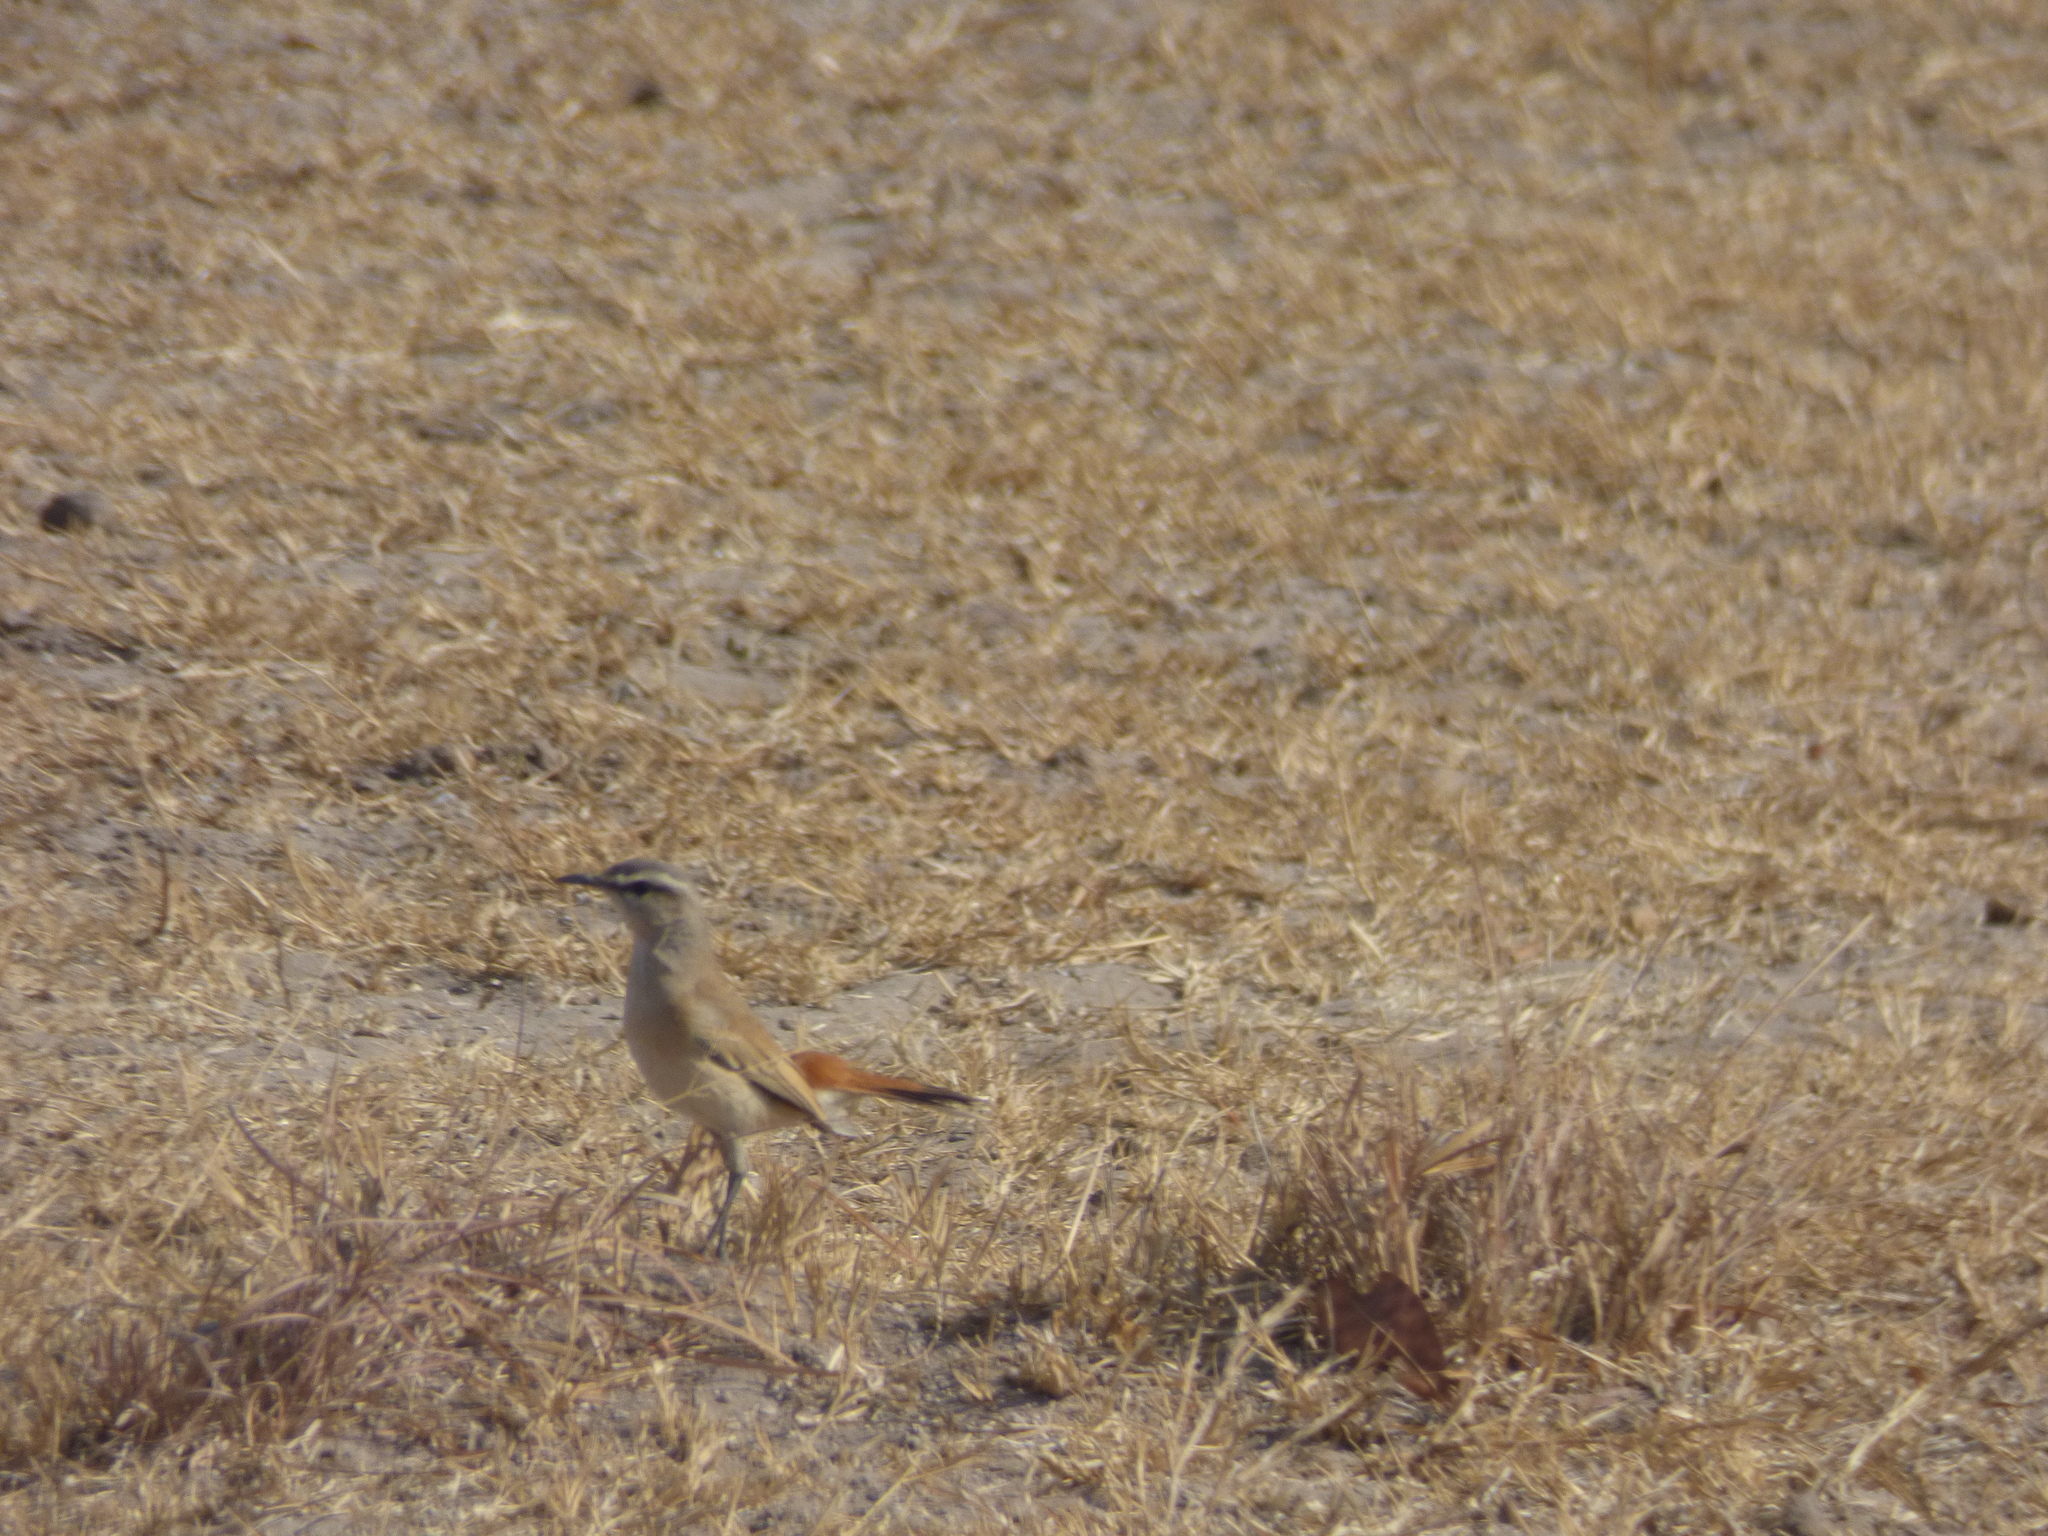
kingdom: Animalia
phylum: Chordata
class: Aves
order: Passeriformes
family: Muscicapidae
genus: Erythropygia
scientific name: Erythropygia paena
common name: Kalahari scrub robin
